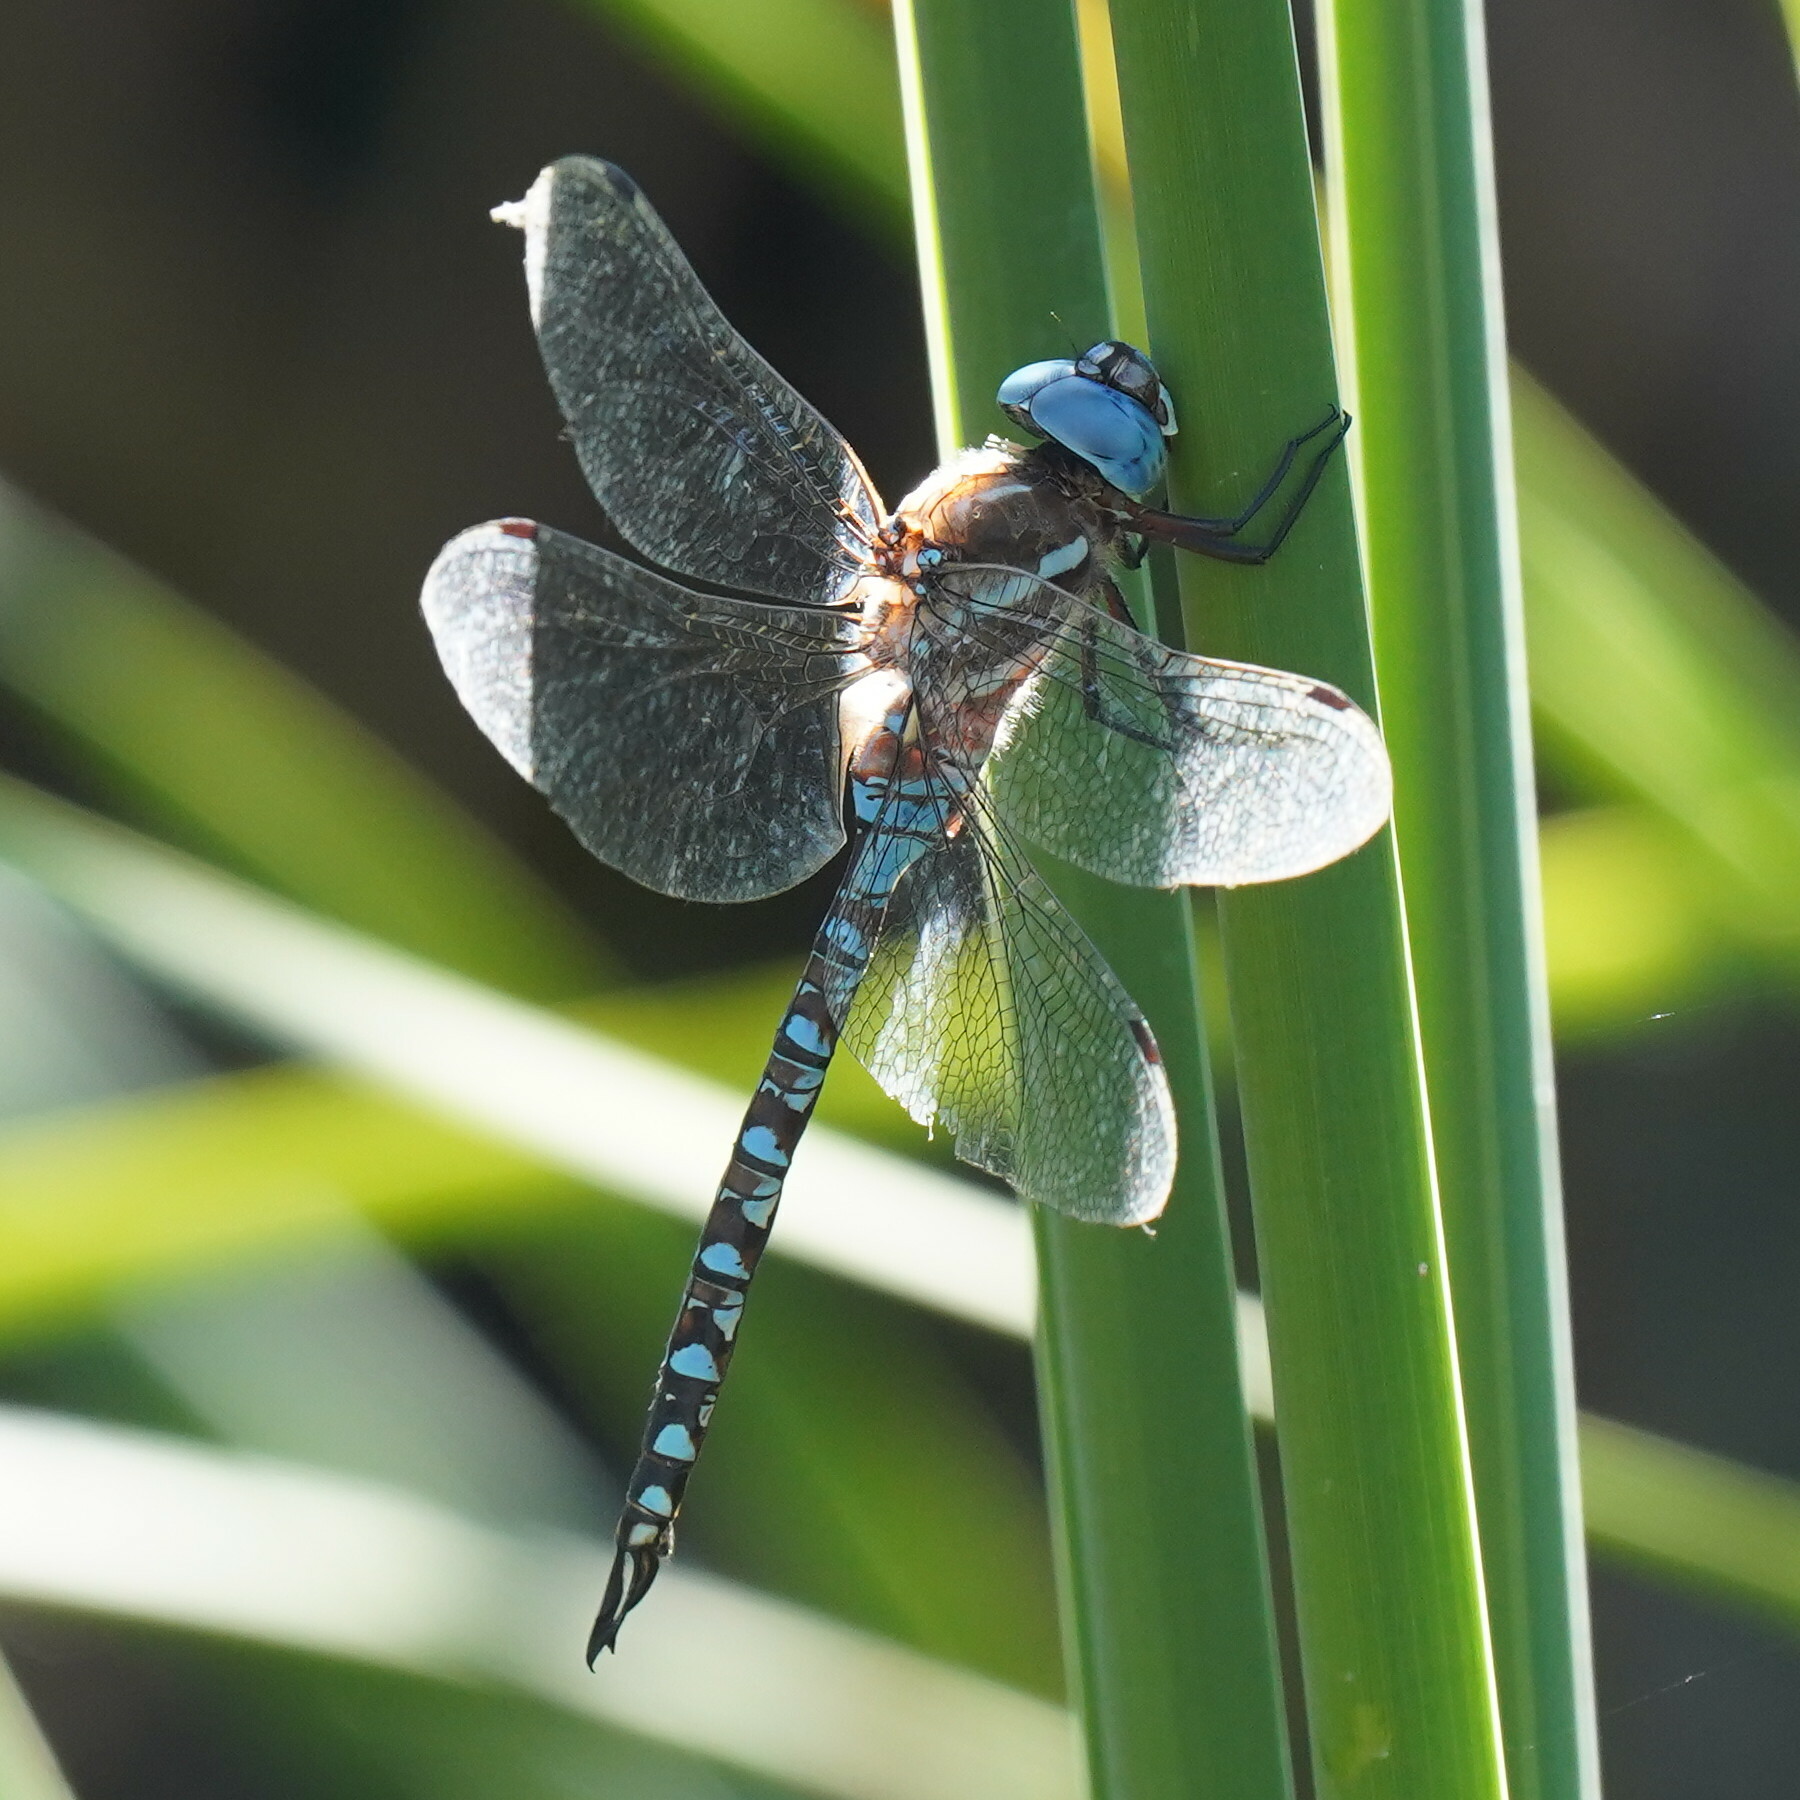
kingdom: Animalia
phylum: Arthropoda
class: Insecta
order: Odonata
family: Aeshnidae
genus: Rhionaeschna
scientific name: Rhionaeschna multicolor
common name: Blue-eyed darner
